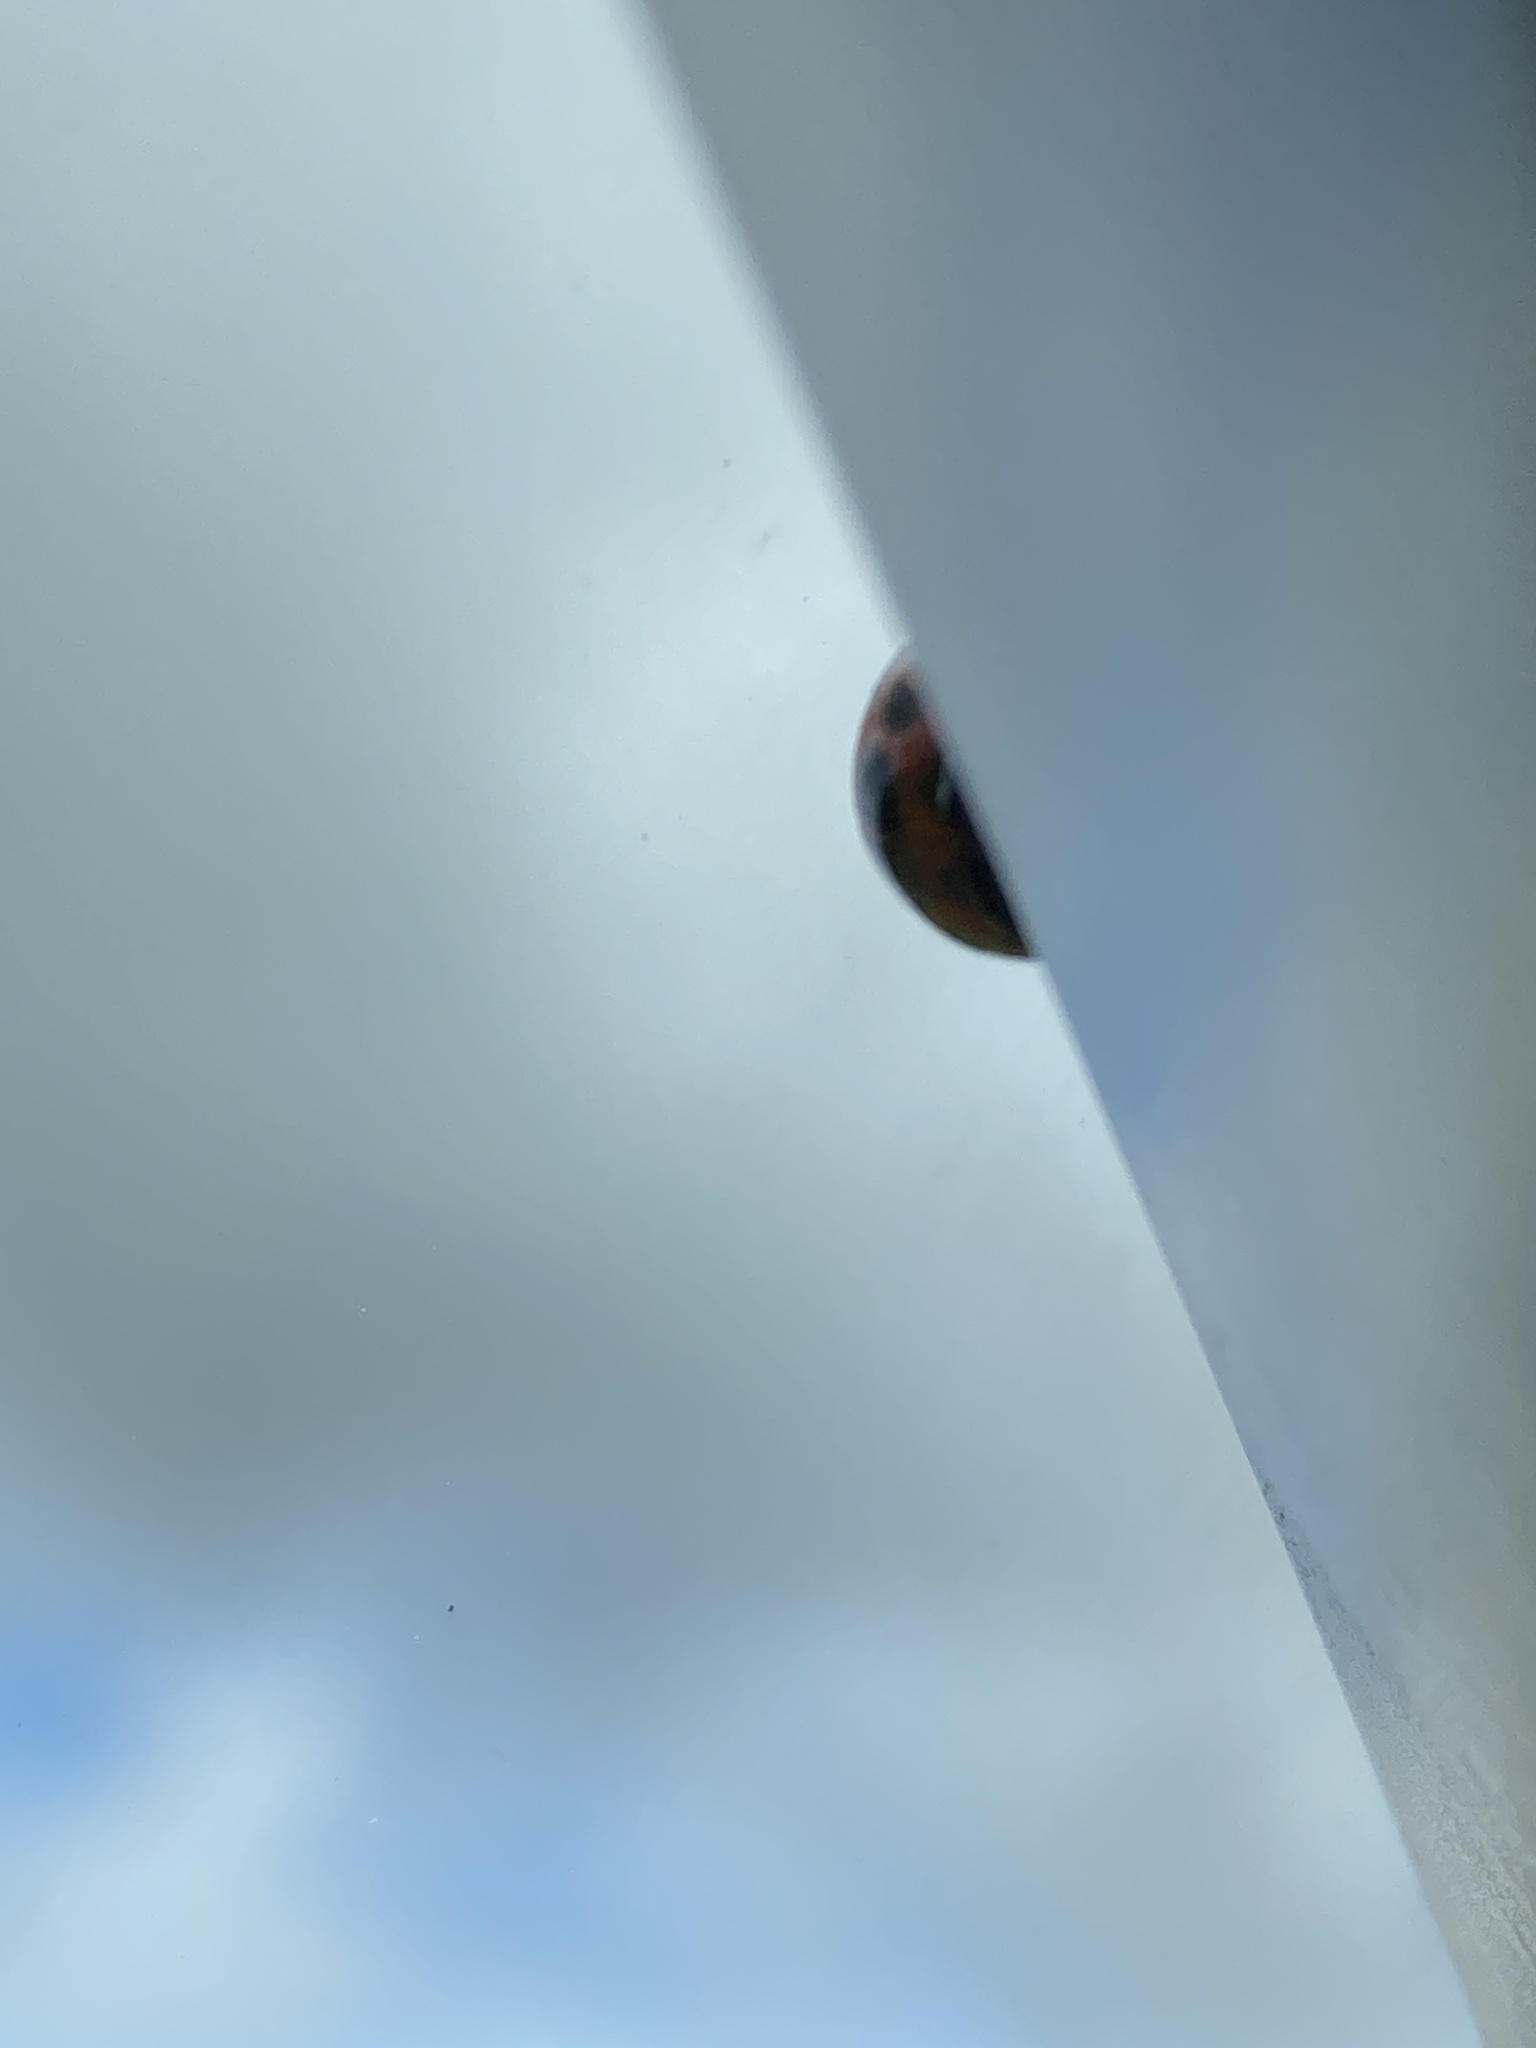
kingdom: Animalia
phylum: Arthropoda
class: Insecta
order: Coleoptera
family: Coccinellidae
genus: Harmonia
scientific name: Harmonia axyridis
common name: Harlequin ladybird
